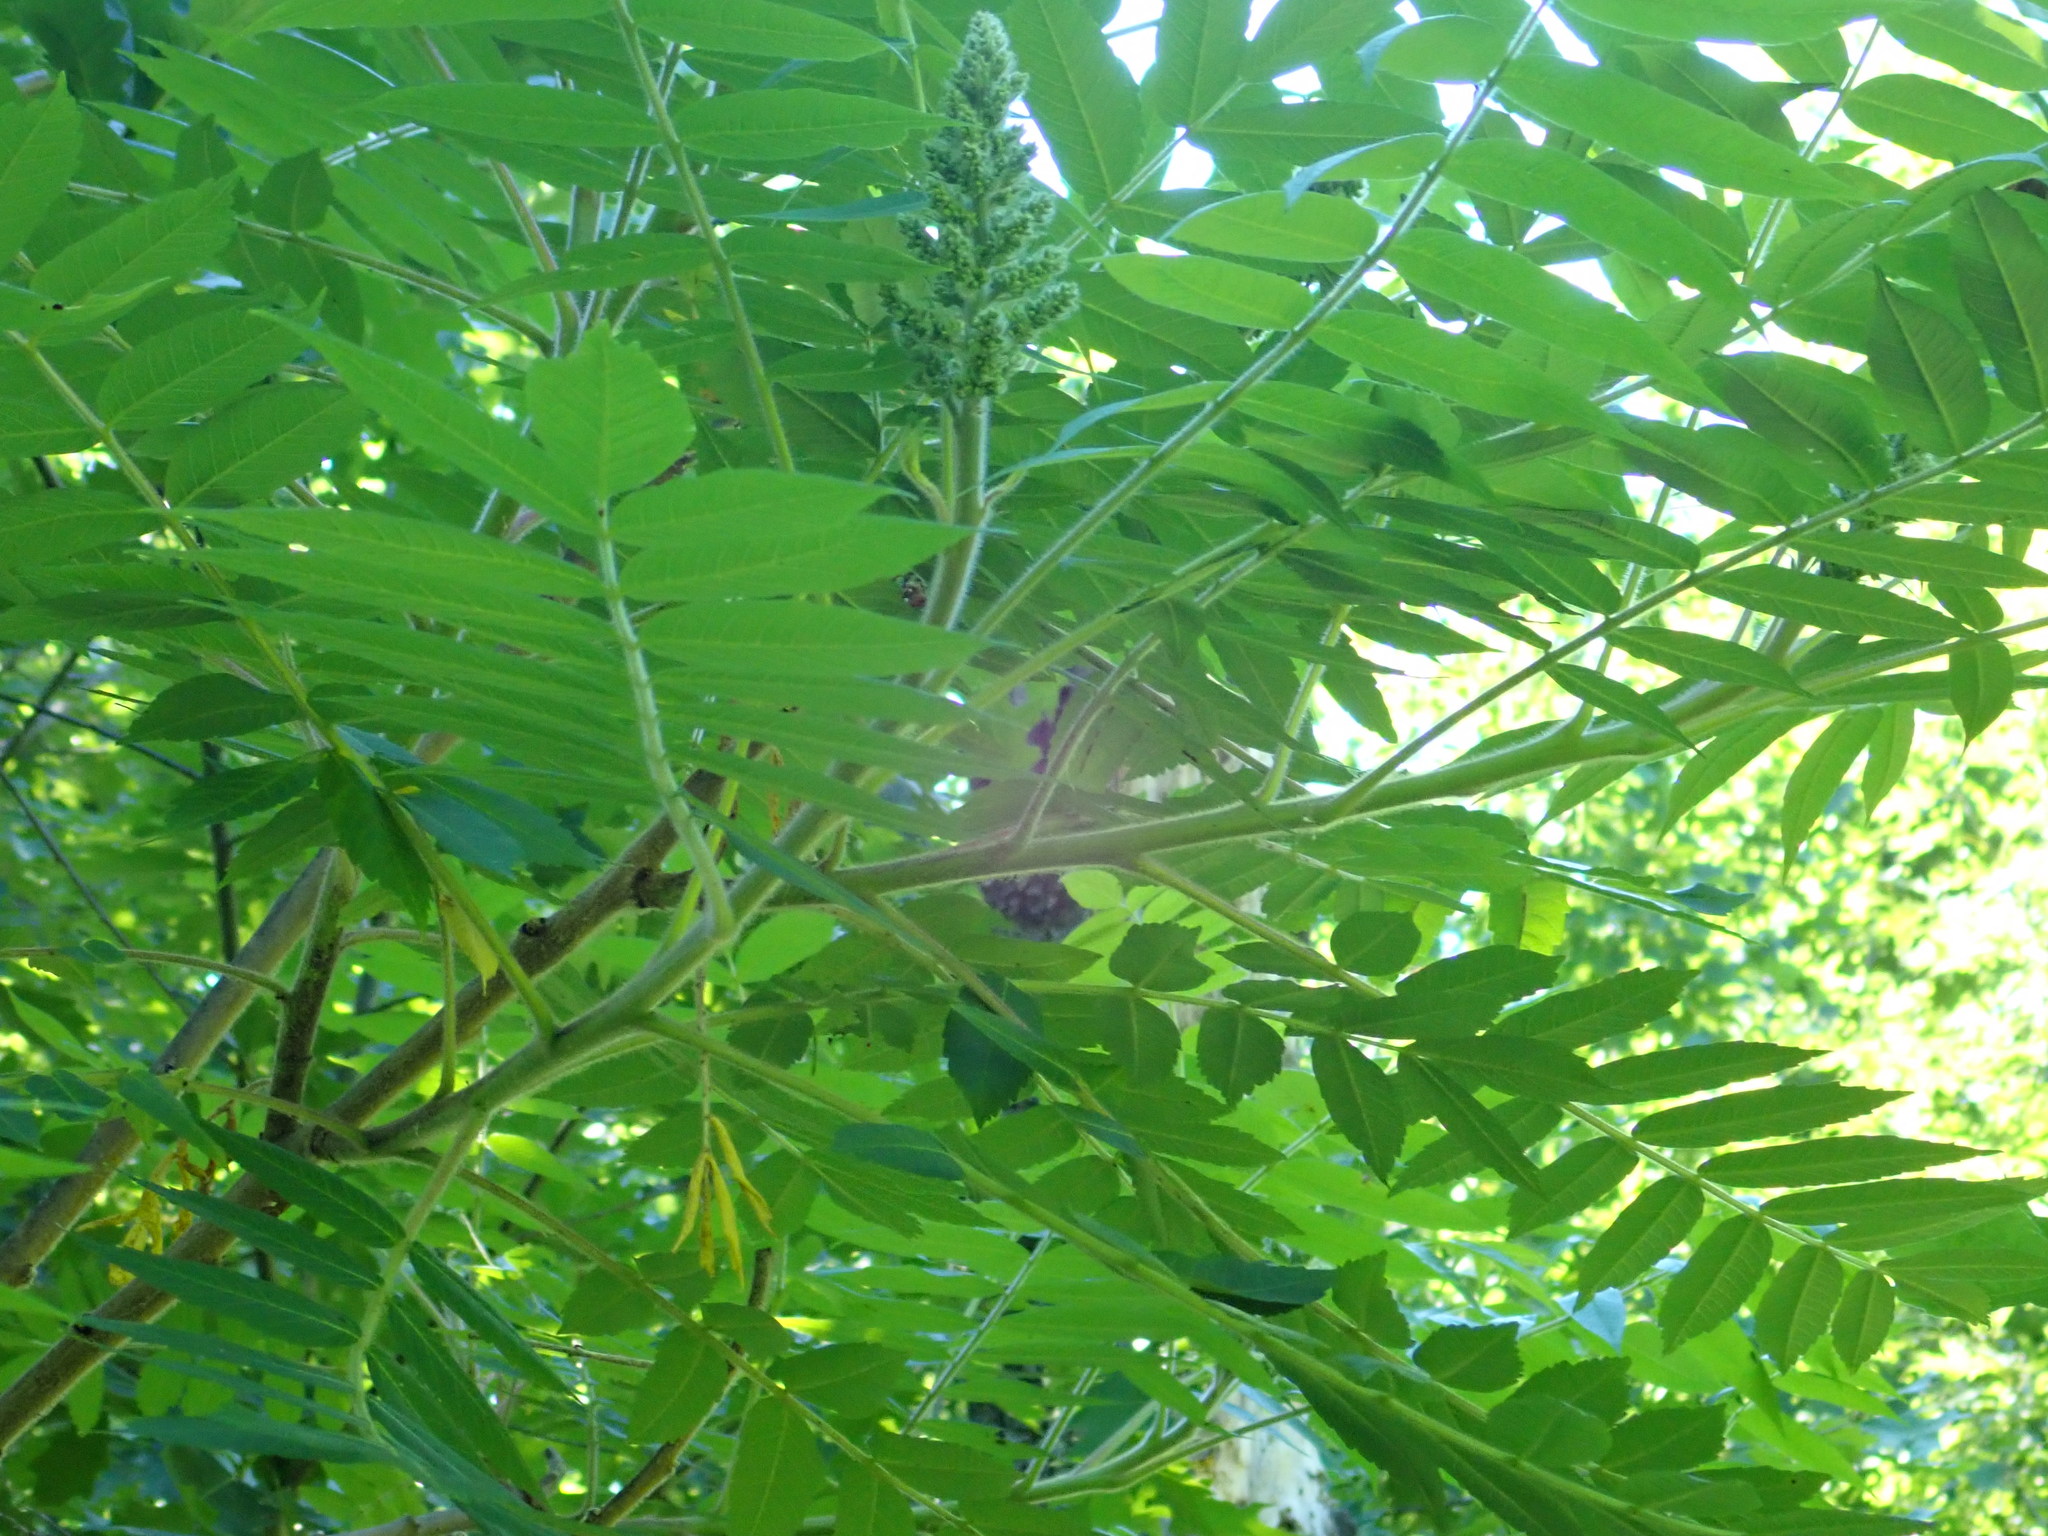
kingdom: Plantae
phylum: Tracheophyta
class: Magnoliopsida
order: Sapindales
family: Anacardiaceae
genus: Rhus
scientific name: Rhus typhina
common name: Staghorn sumac
